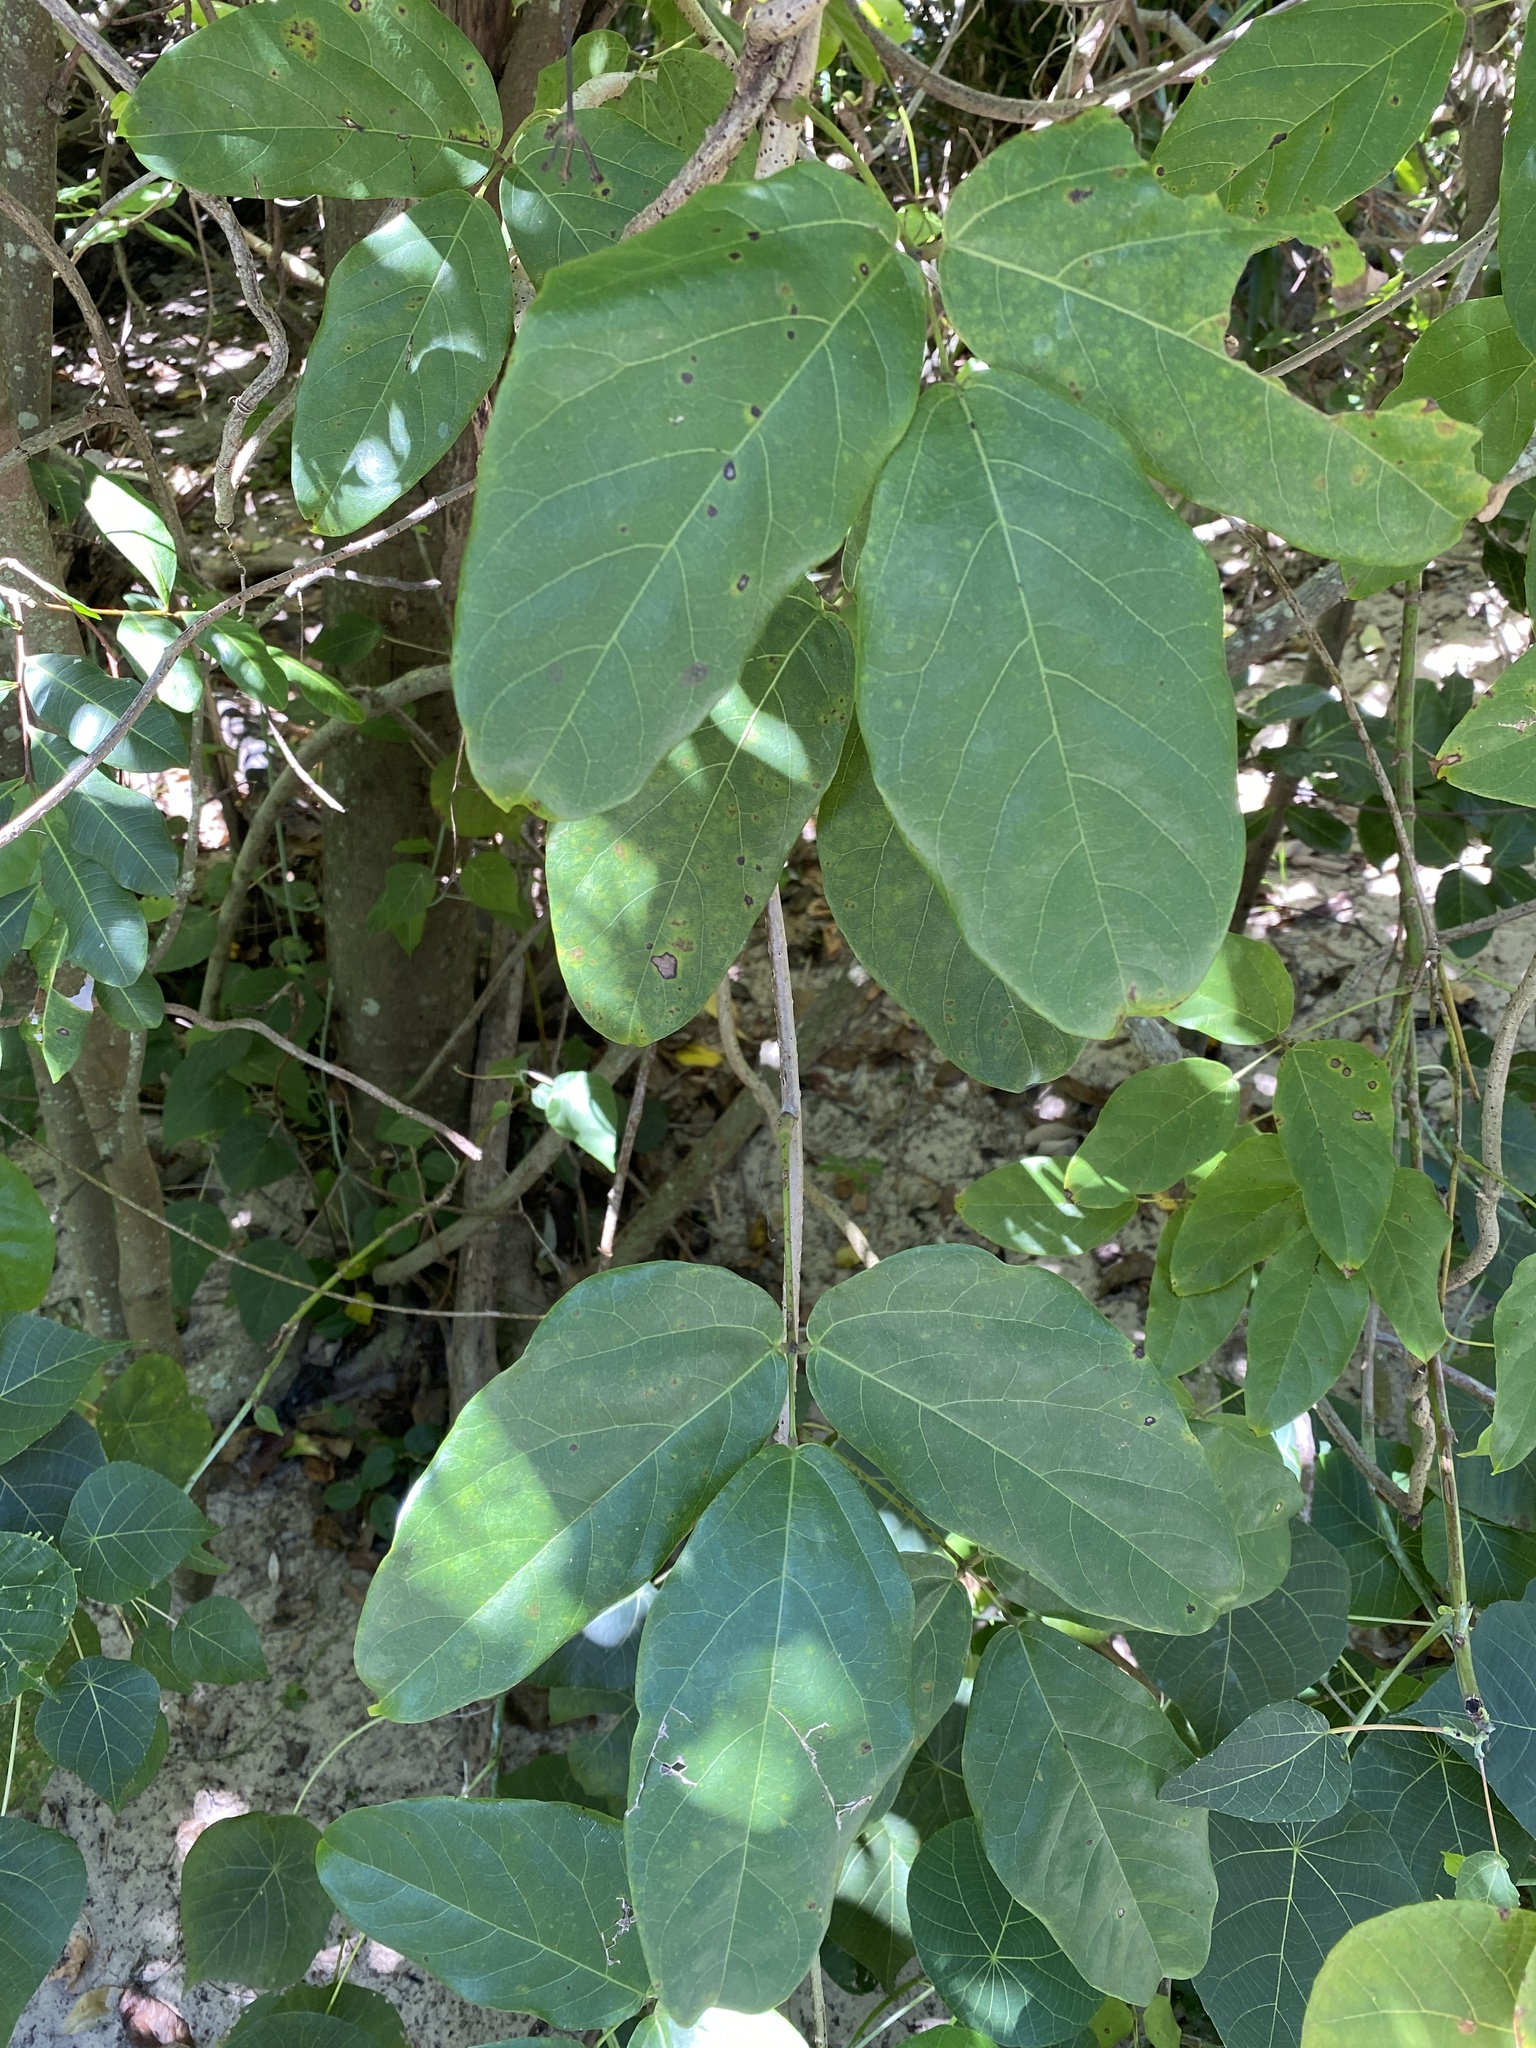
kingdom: Plantae
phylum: Tracheophyta
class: Magnoliopsida
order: Fabales
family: Fabaceae
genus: Mucuna
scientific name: Mucuna gigantea
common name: Black-bean
